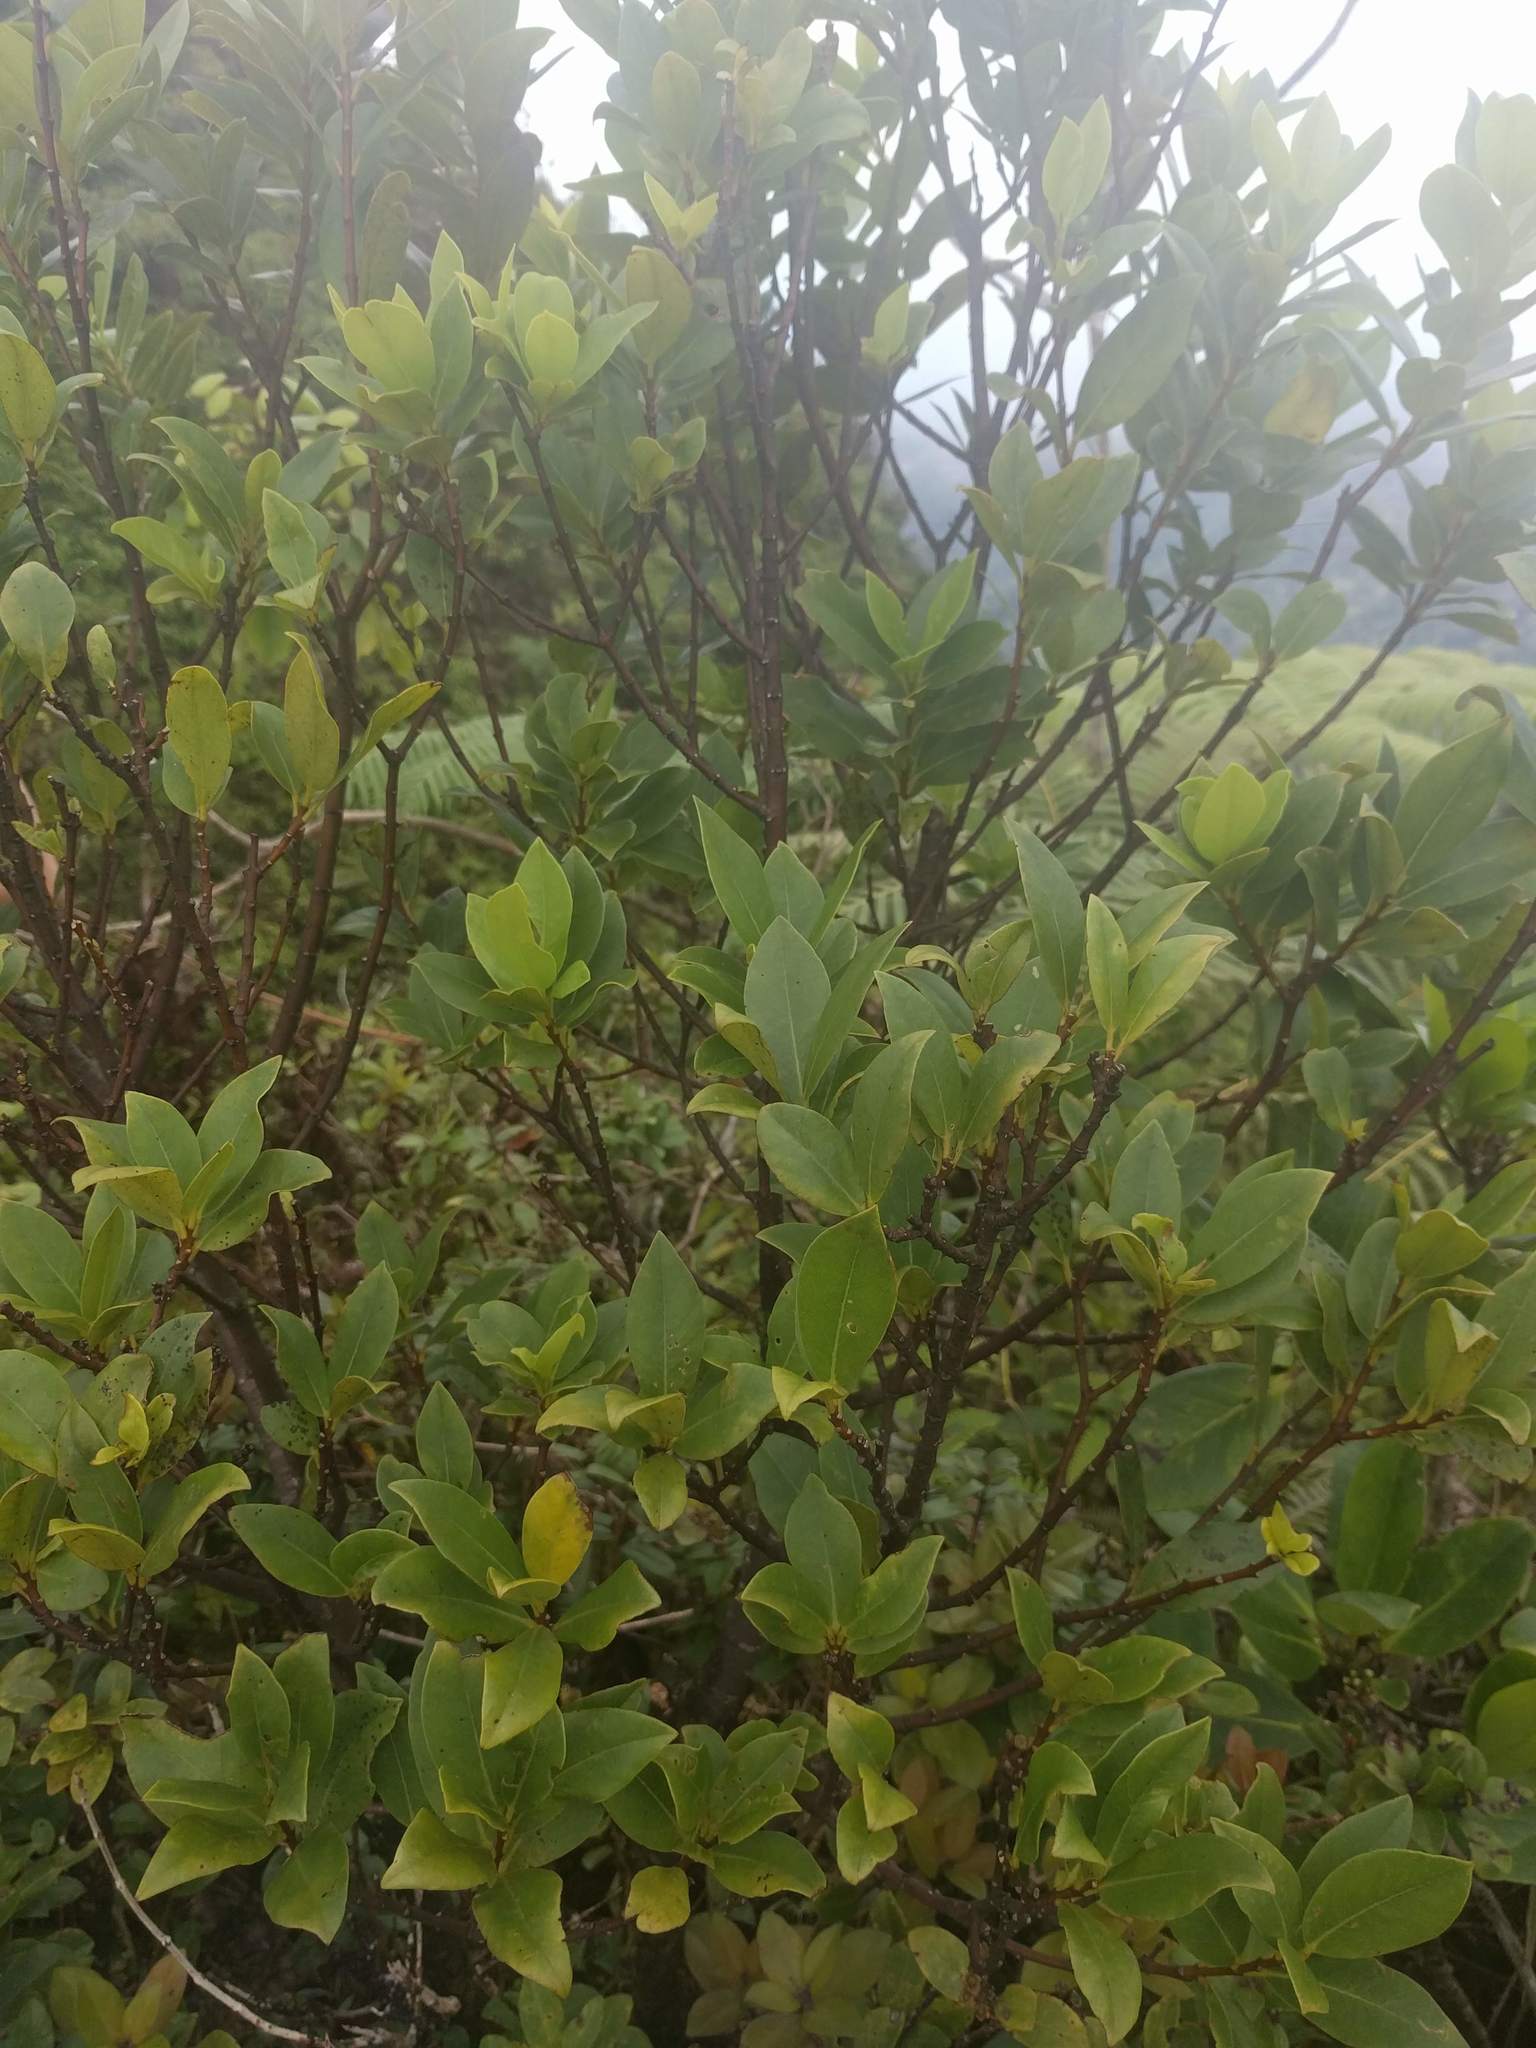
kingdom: Plantae
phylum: Tracheophyta
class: Magnoliopsida
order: Malvales
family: Thymelaeaceae
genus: Wikstroemia
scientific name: Wikstroemia oahuensis
